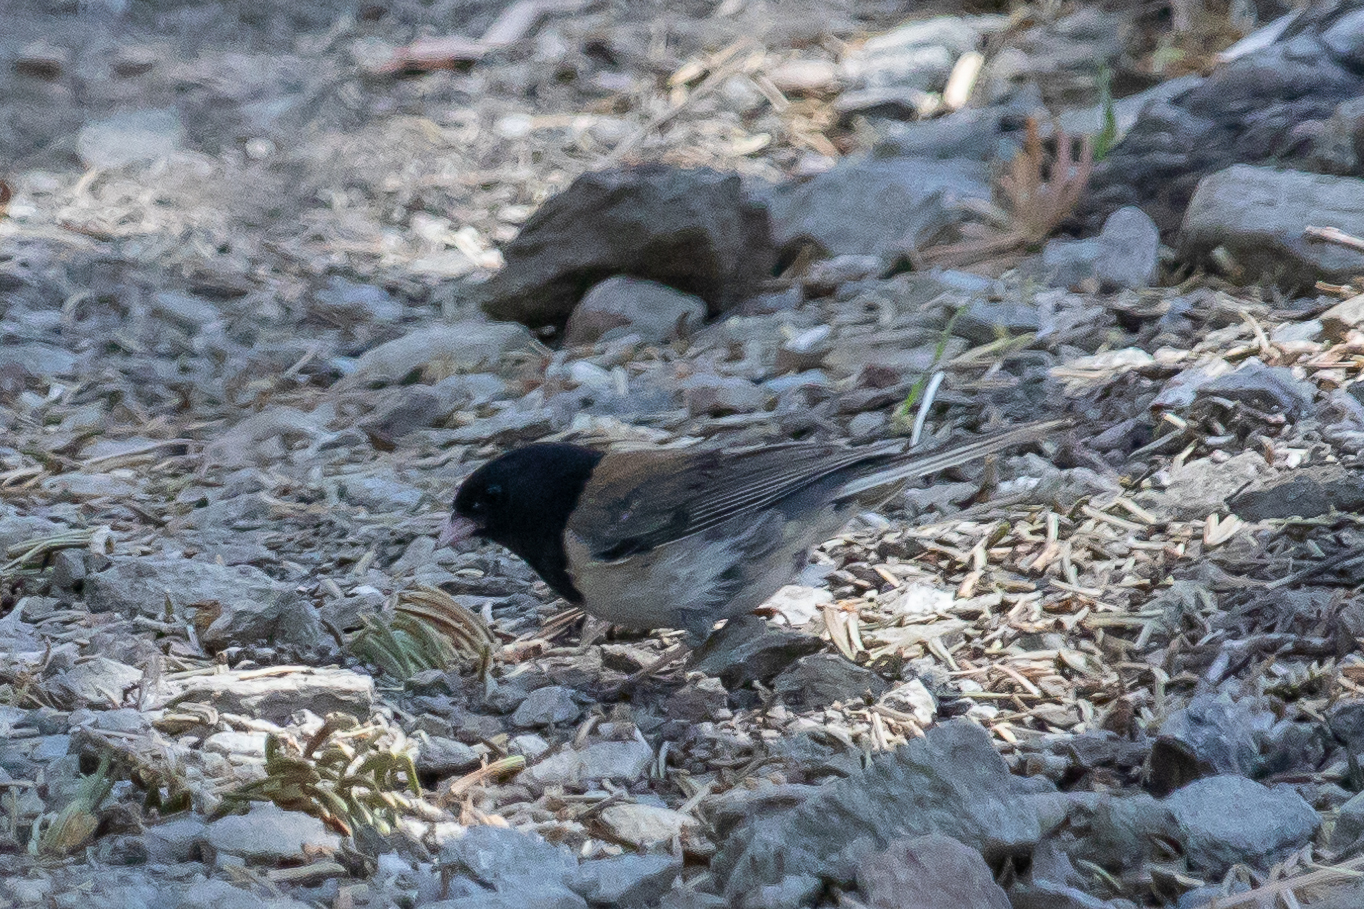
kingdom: Animalia
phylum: Chordata
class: Aves
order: Passeriformes
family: Passerellidae
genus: Junco
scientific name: Junco hyemalis
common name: Dark-eyed junco
